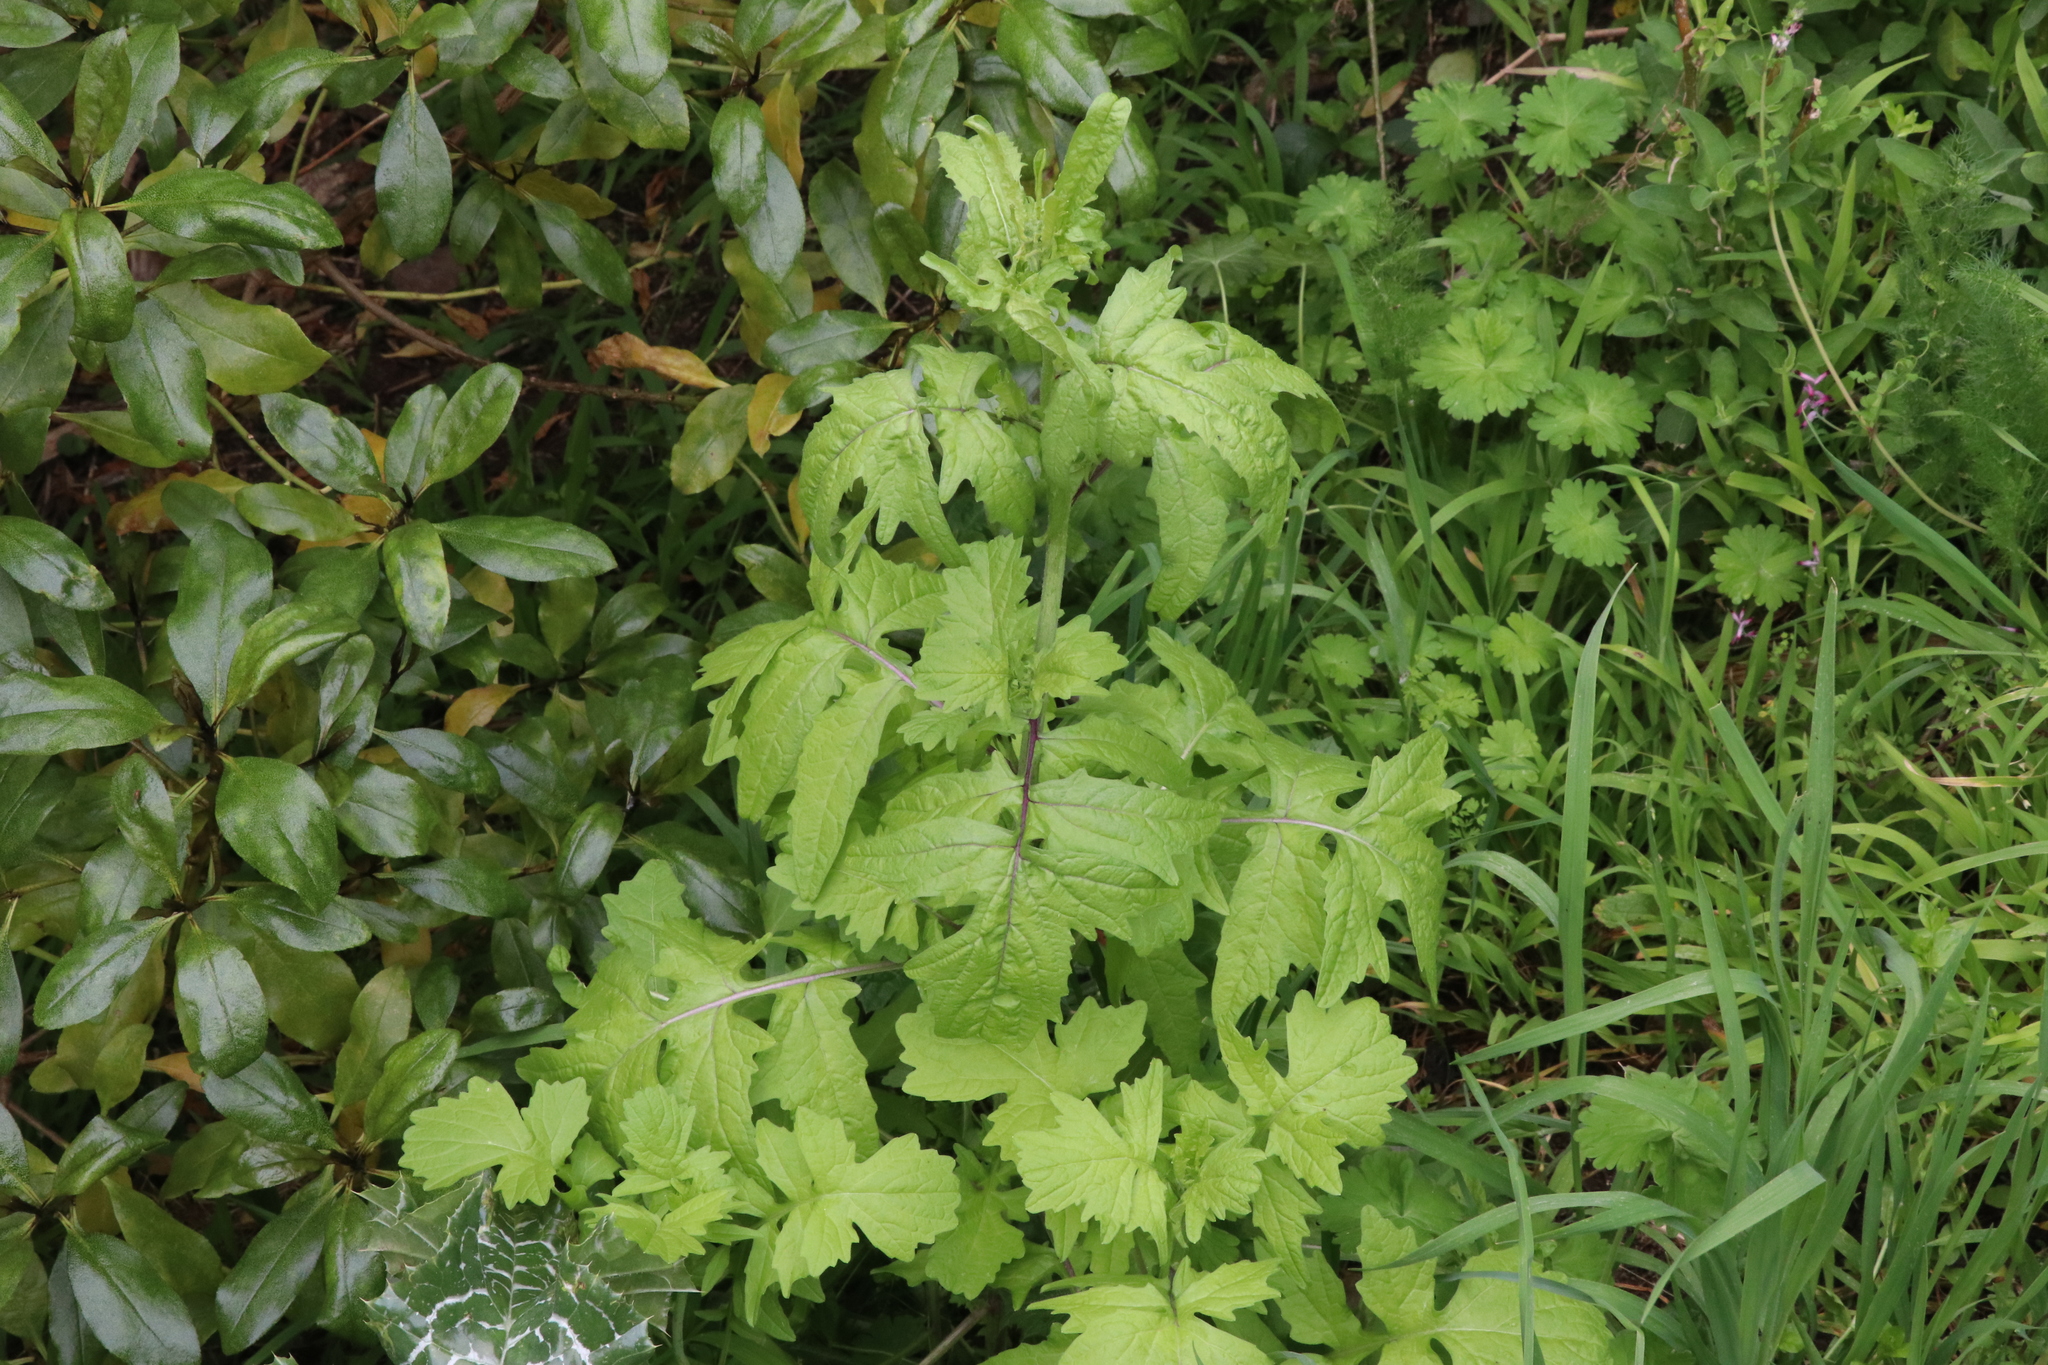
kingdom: Plantae
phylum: Tracheophyta
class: Magnoliopsida
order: Brassicales
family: Brassicaceae
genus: Sisymbrium
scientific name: Sisymbrium officinale
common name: Hedge mustard
